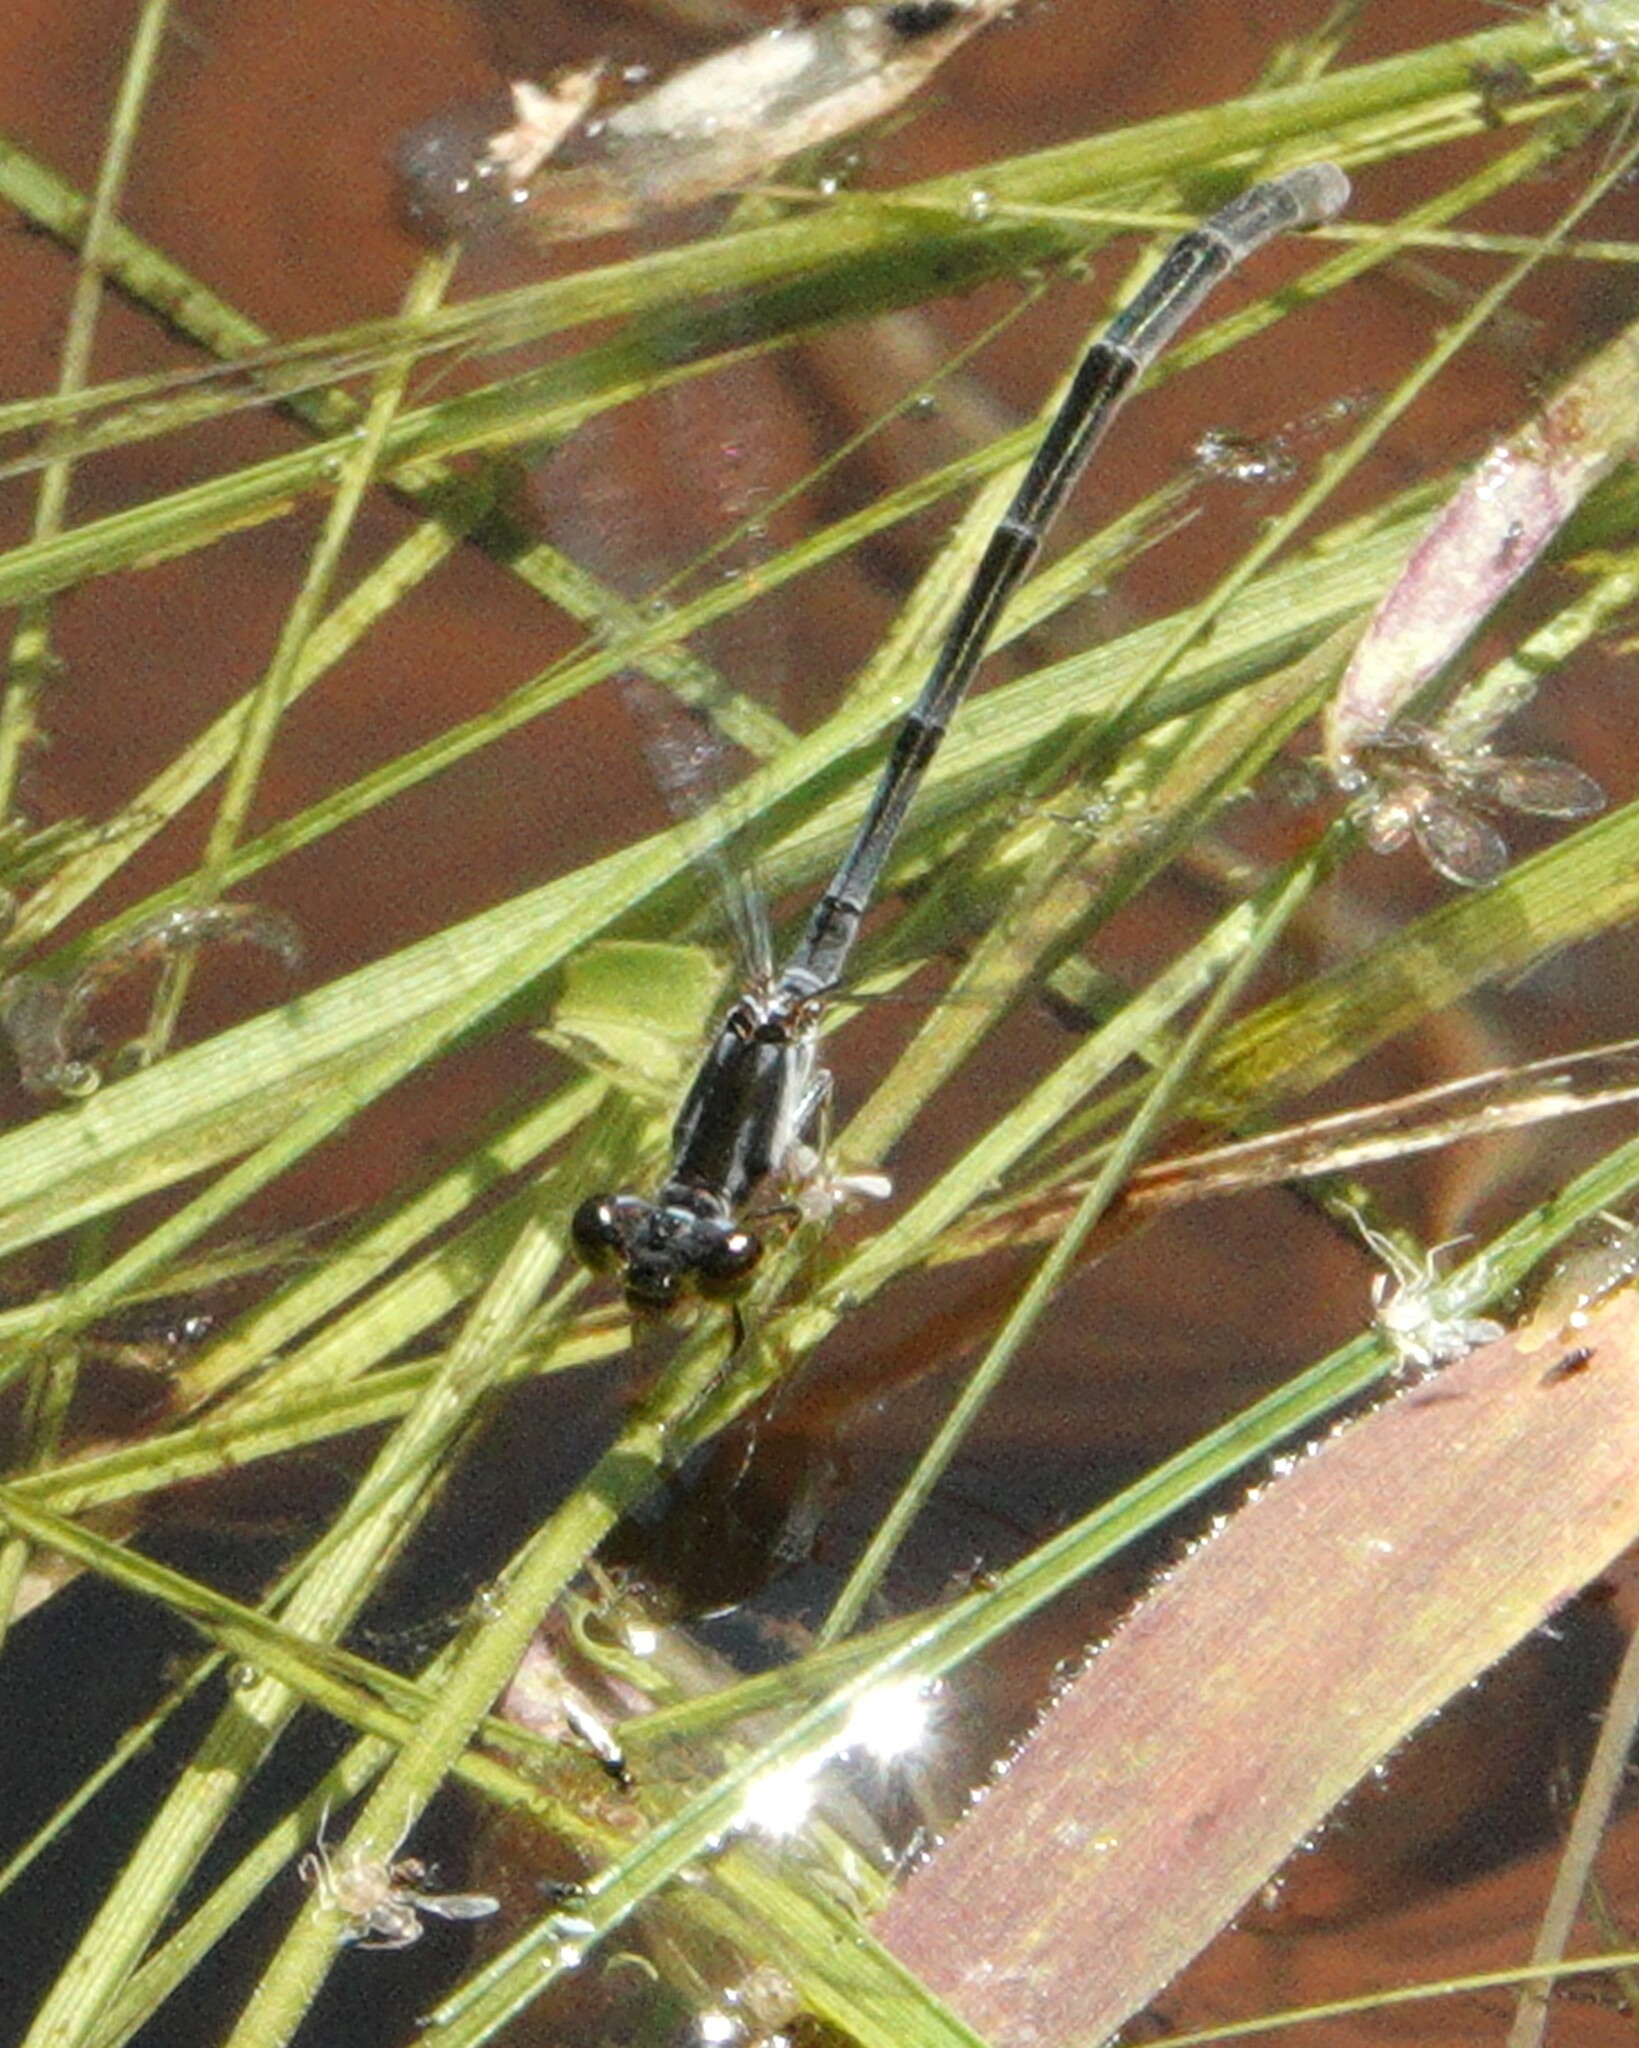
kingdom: Animalia
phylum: Arthropoda
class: Insecta
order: Odonata
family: Coenagrionidae
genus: Ischnura
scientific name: Ischnura posita
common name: Fragile forktail
